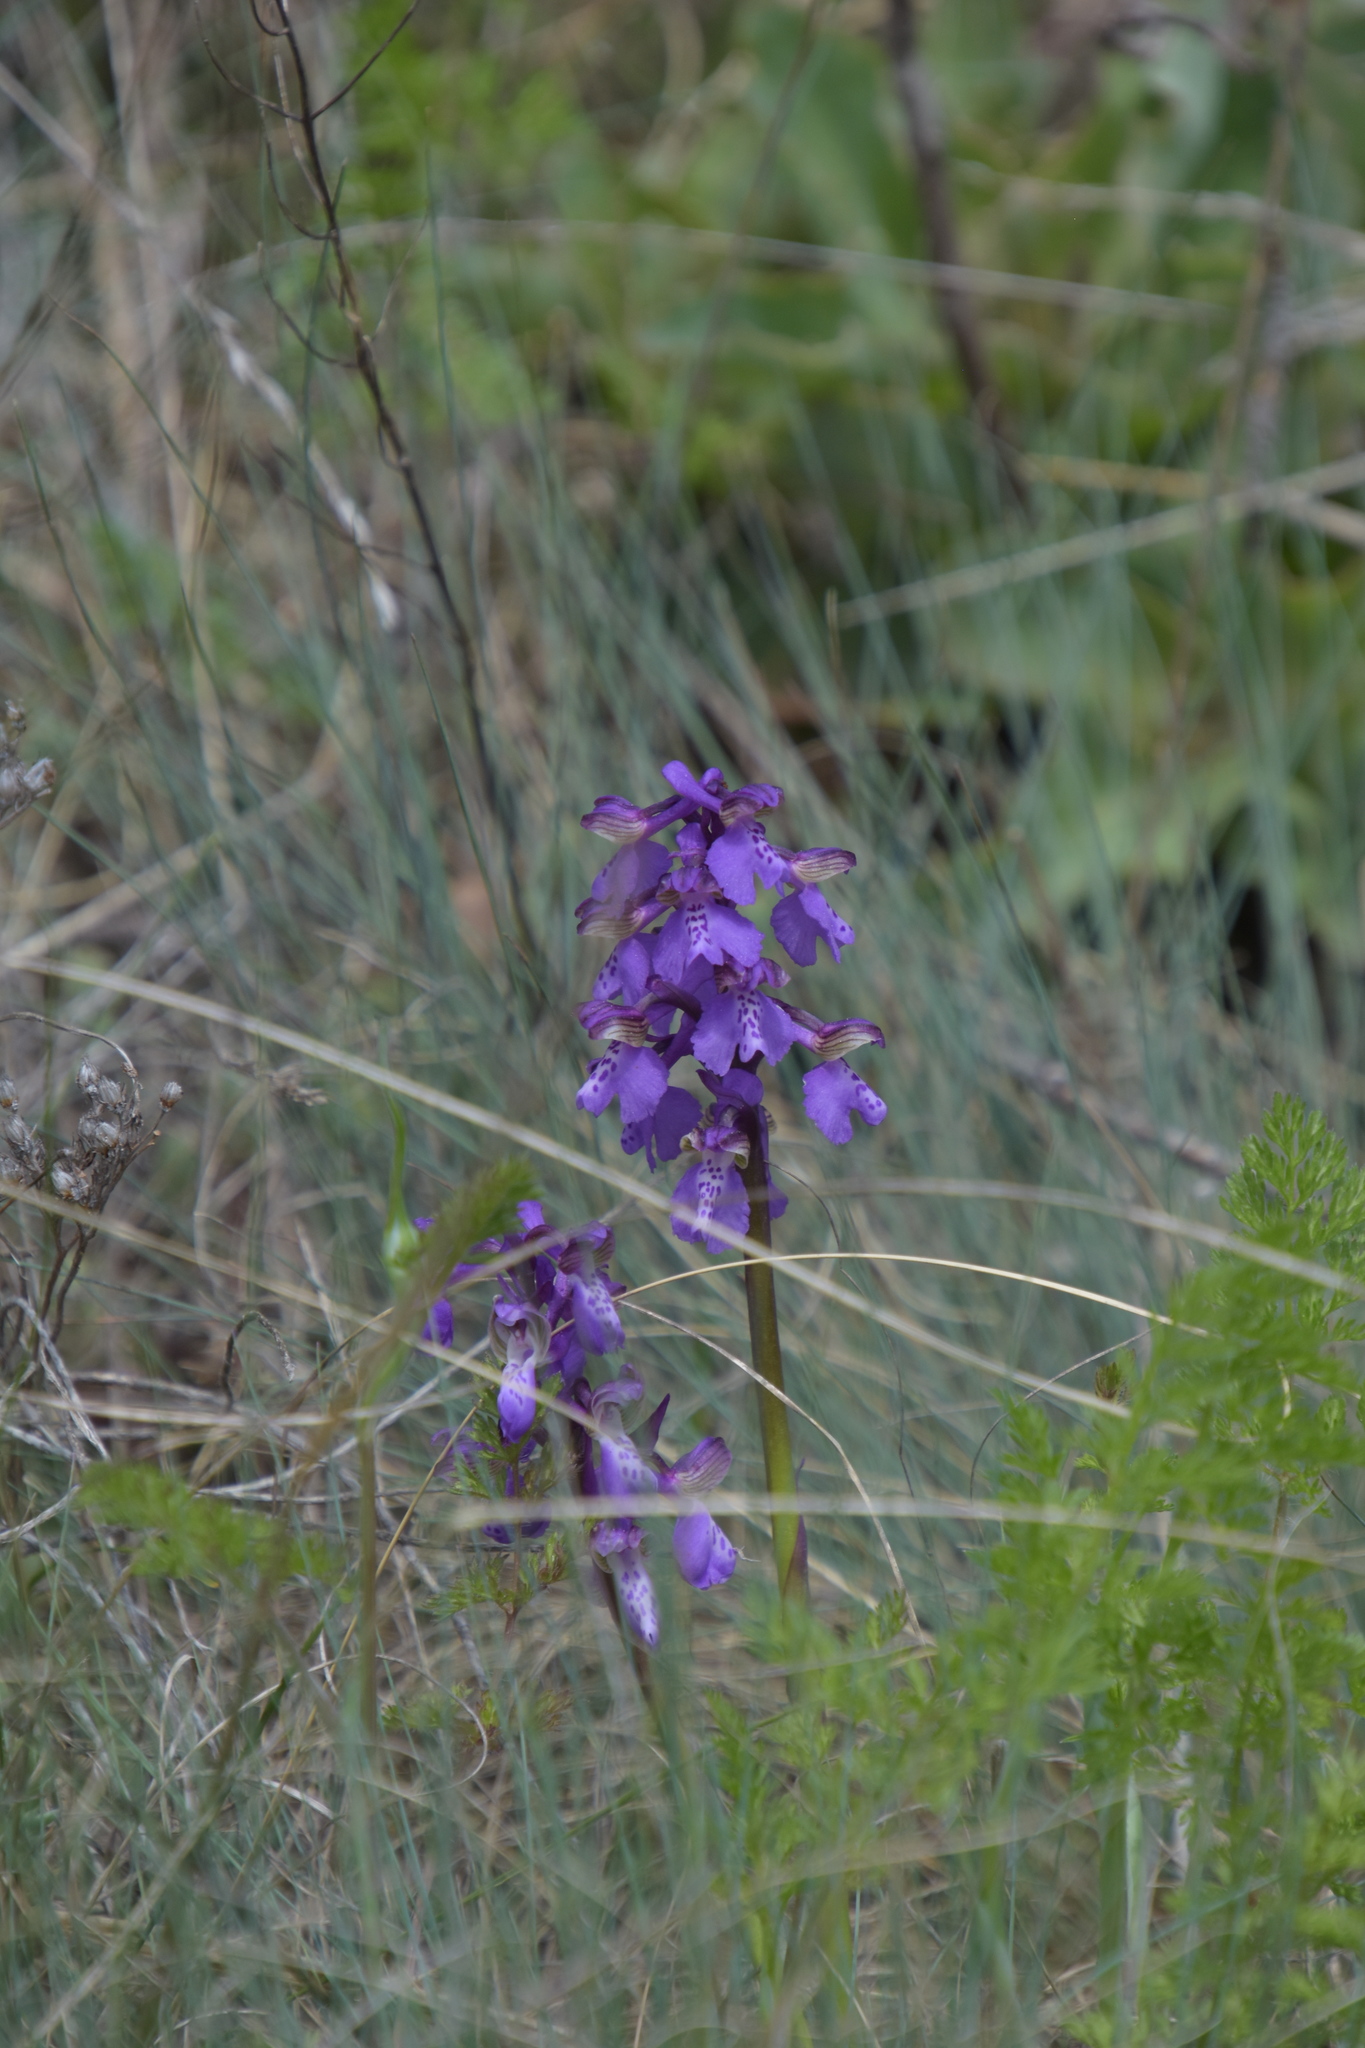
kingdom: Plantae
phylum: Tracheophyta
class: Liliopsida
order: Asparagales
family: Orchidaceae
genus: Anacamptis
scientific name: Anacamptis morio
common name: Green-winged orchid
